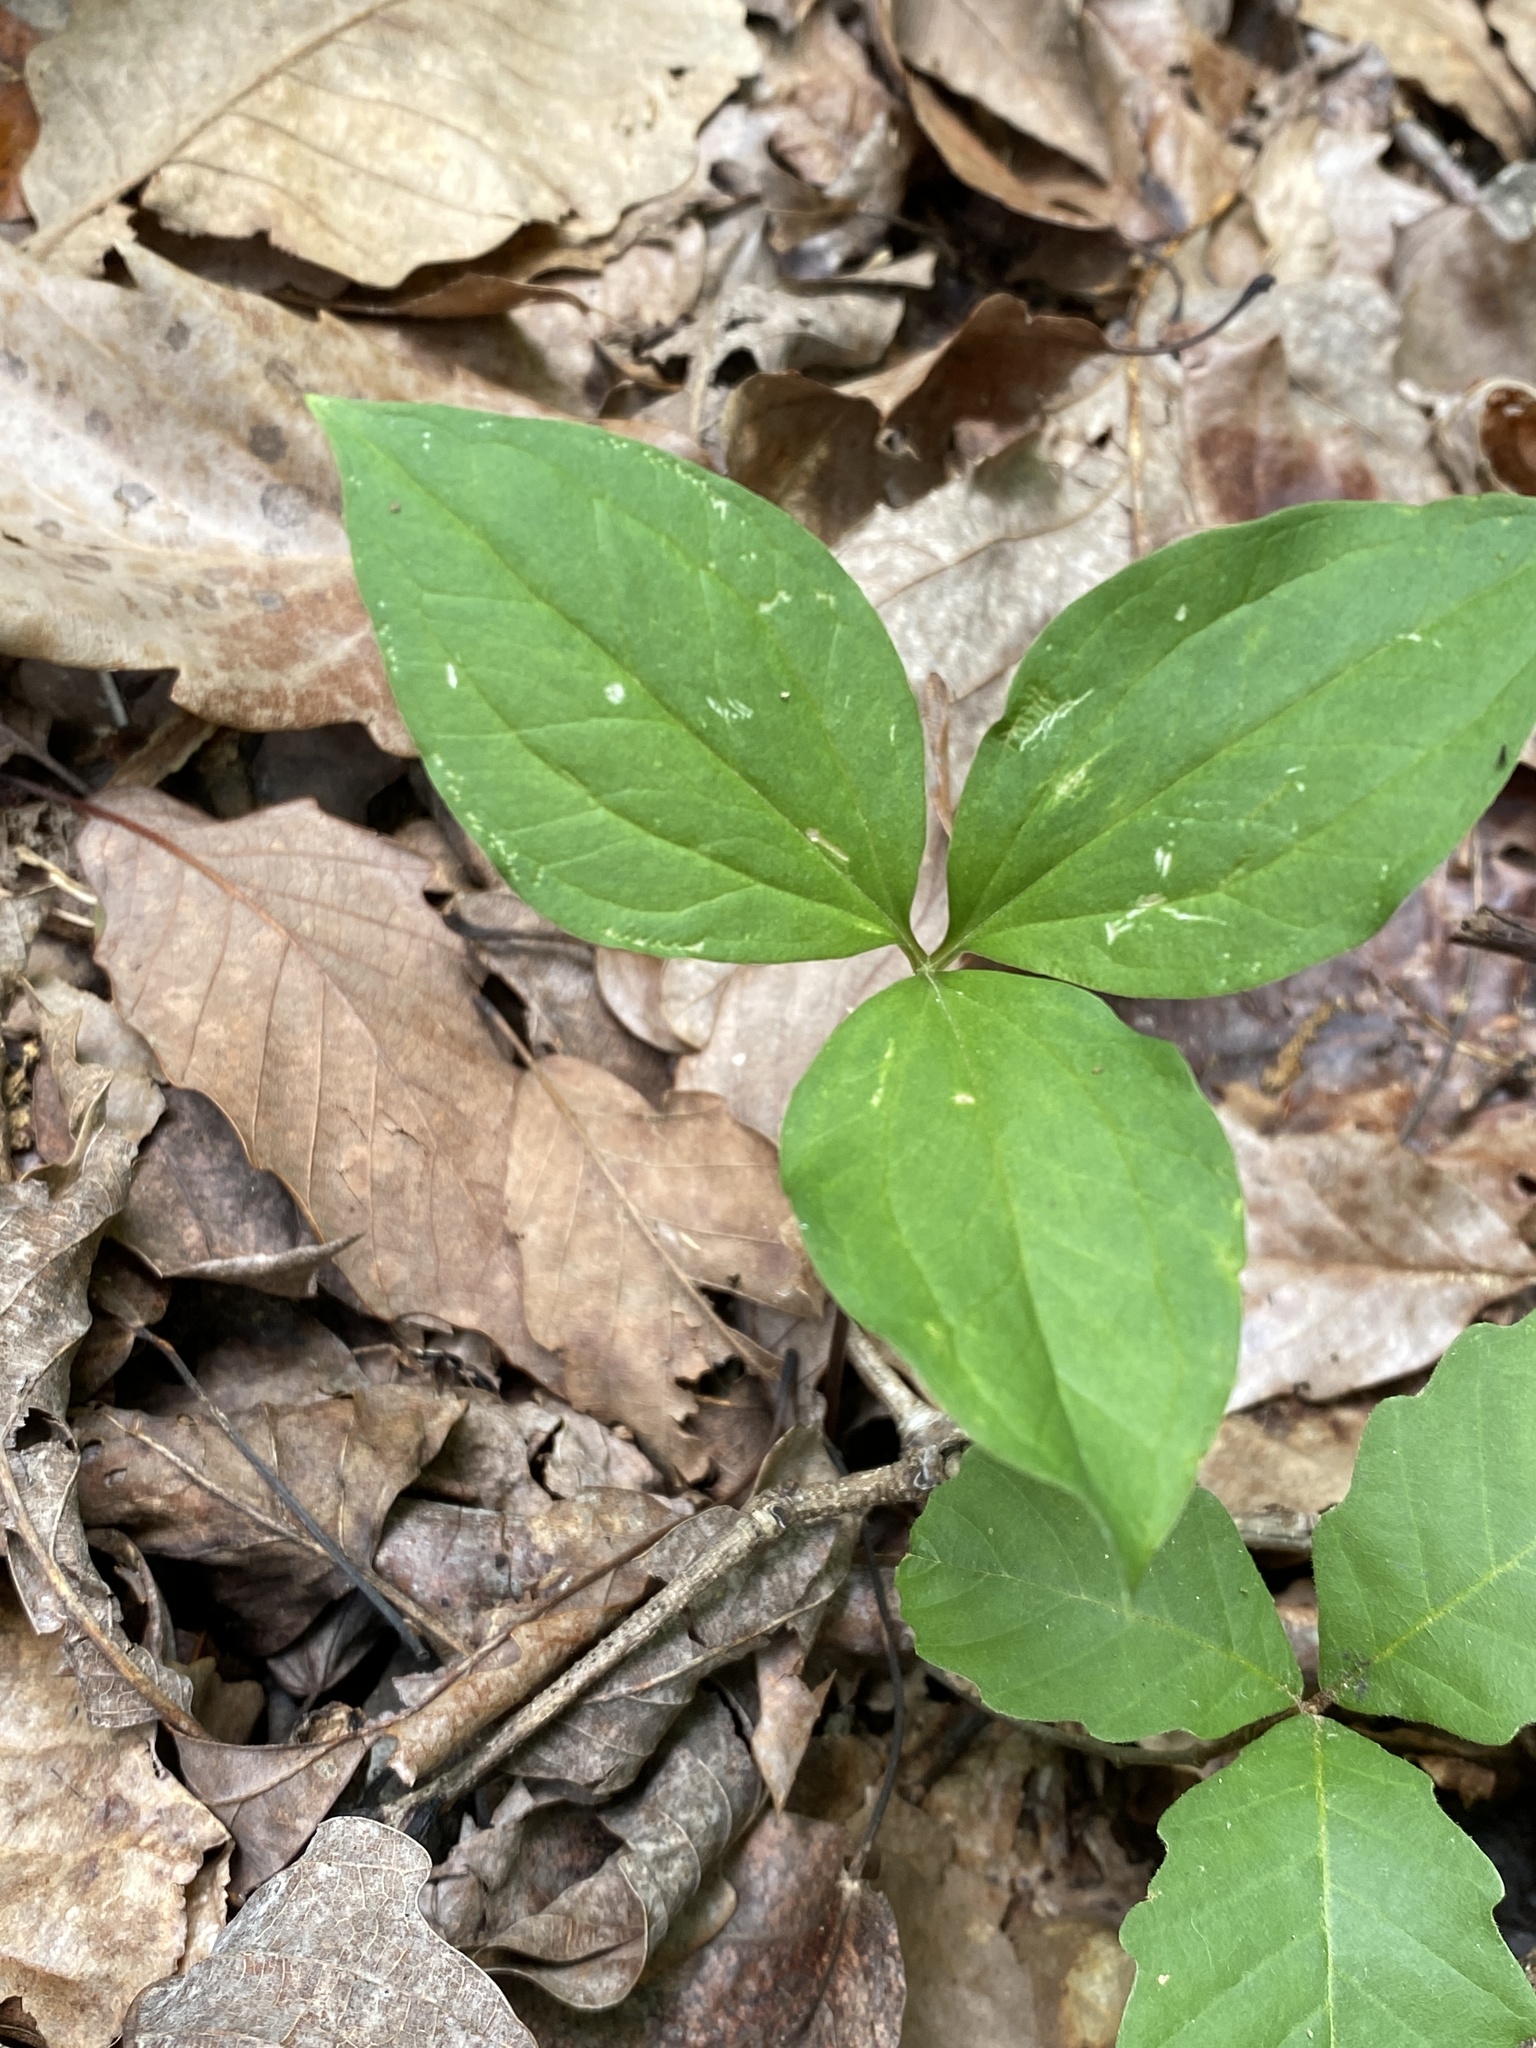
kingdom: Plantae
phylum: Tracheophyta
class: Liliopsida
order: Liliales
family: Melanthiaceae
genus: Trillium
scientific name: Trillium catesbaei
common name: Bashful trillium
